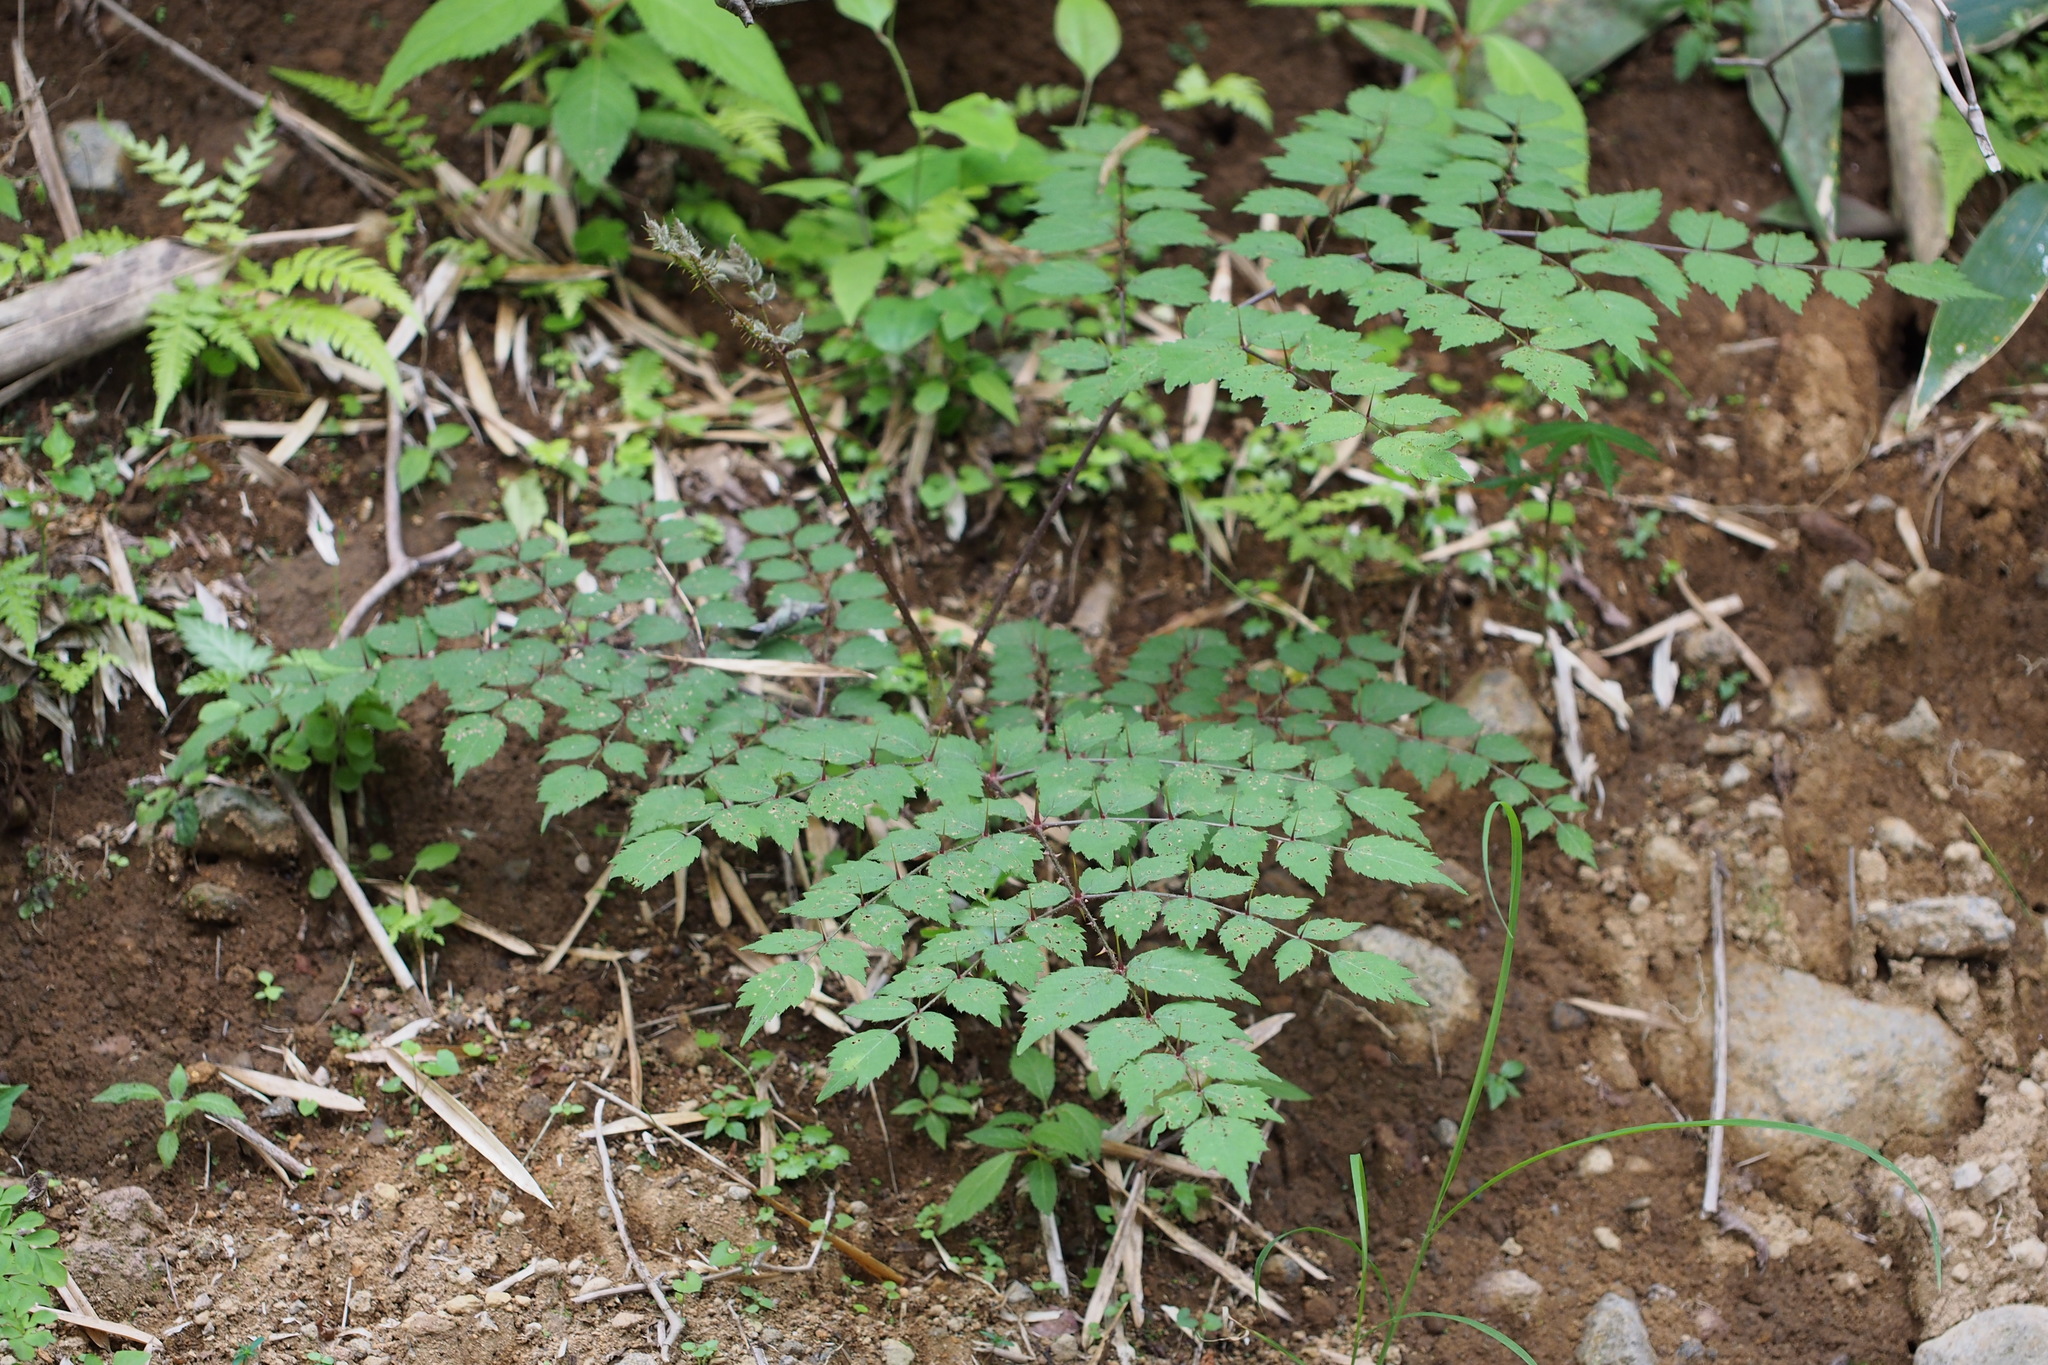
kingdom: Plantae
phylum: Tracheophyta
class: Magnoliopsida
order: Apiales
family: Araliaceae
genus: Aralia
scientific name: Aralia elata
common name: Japanese angelica-tree
